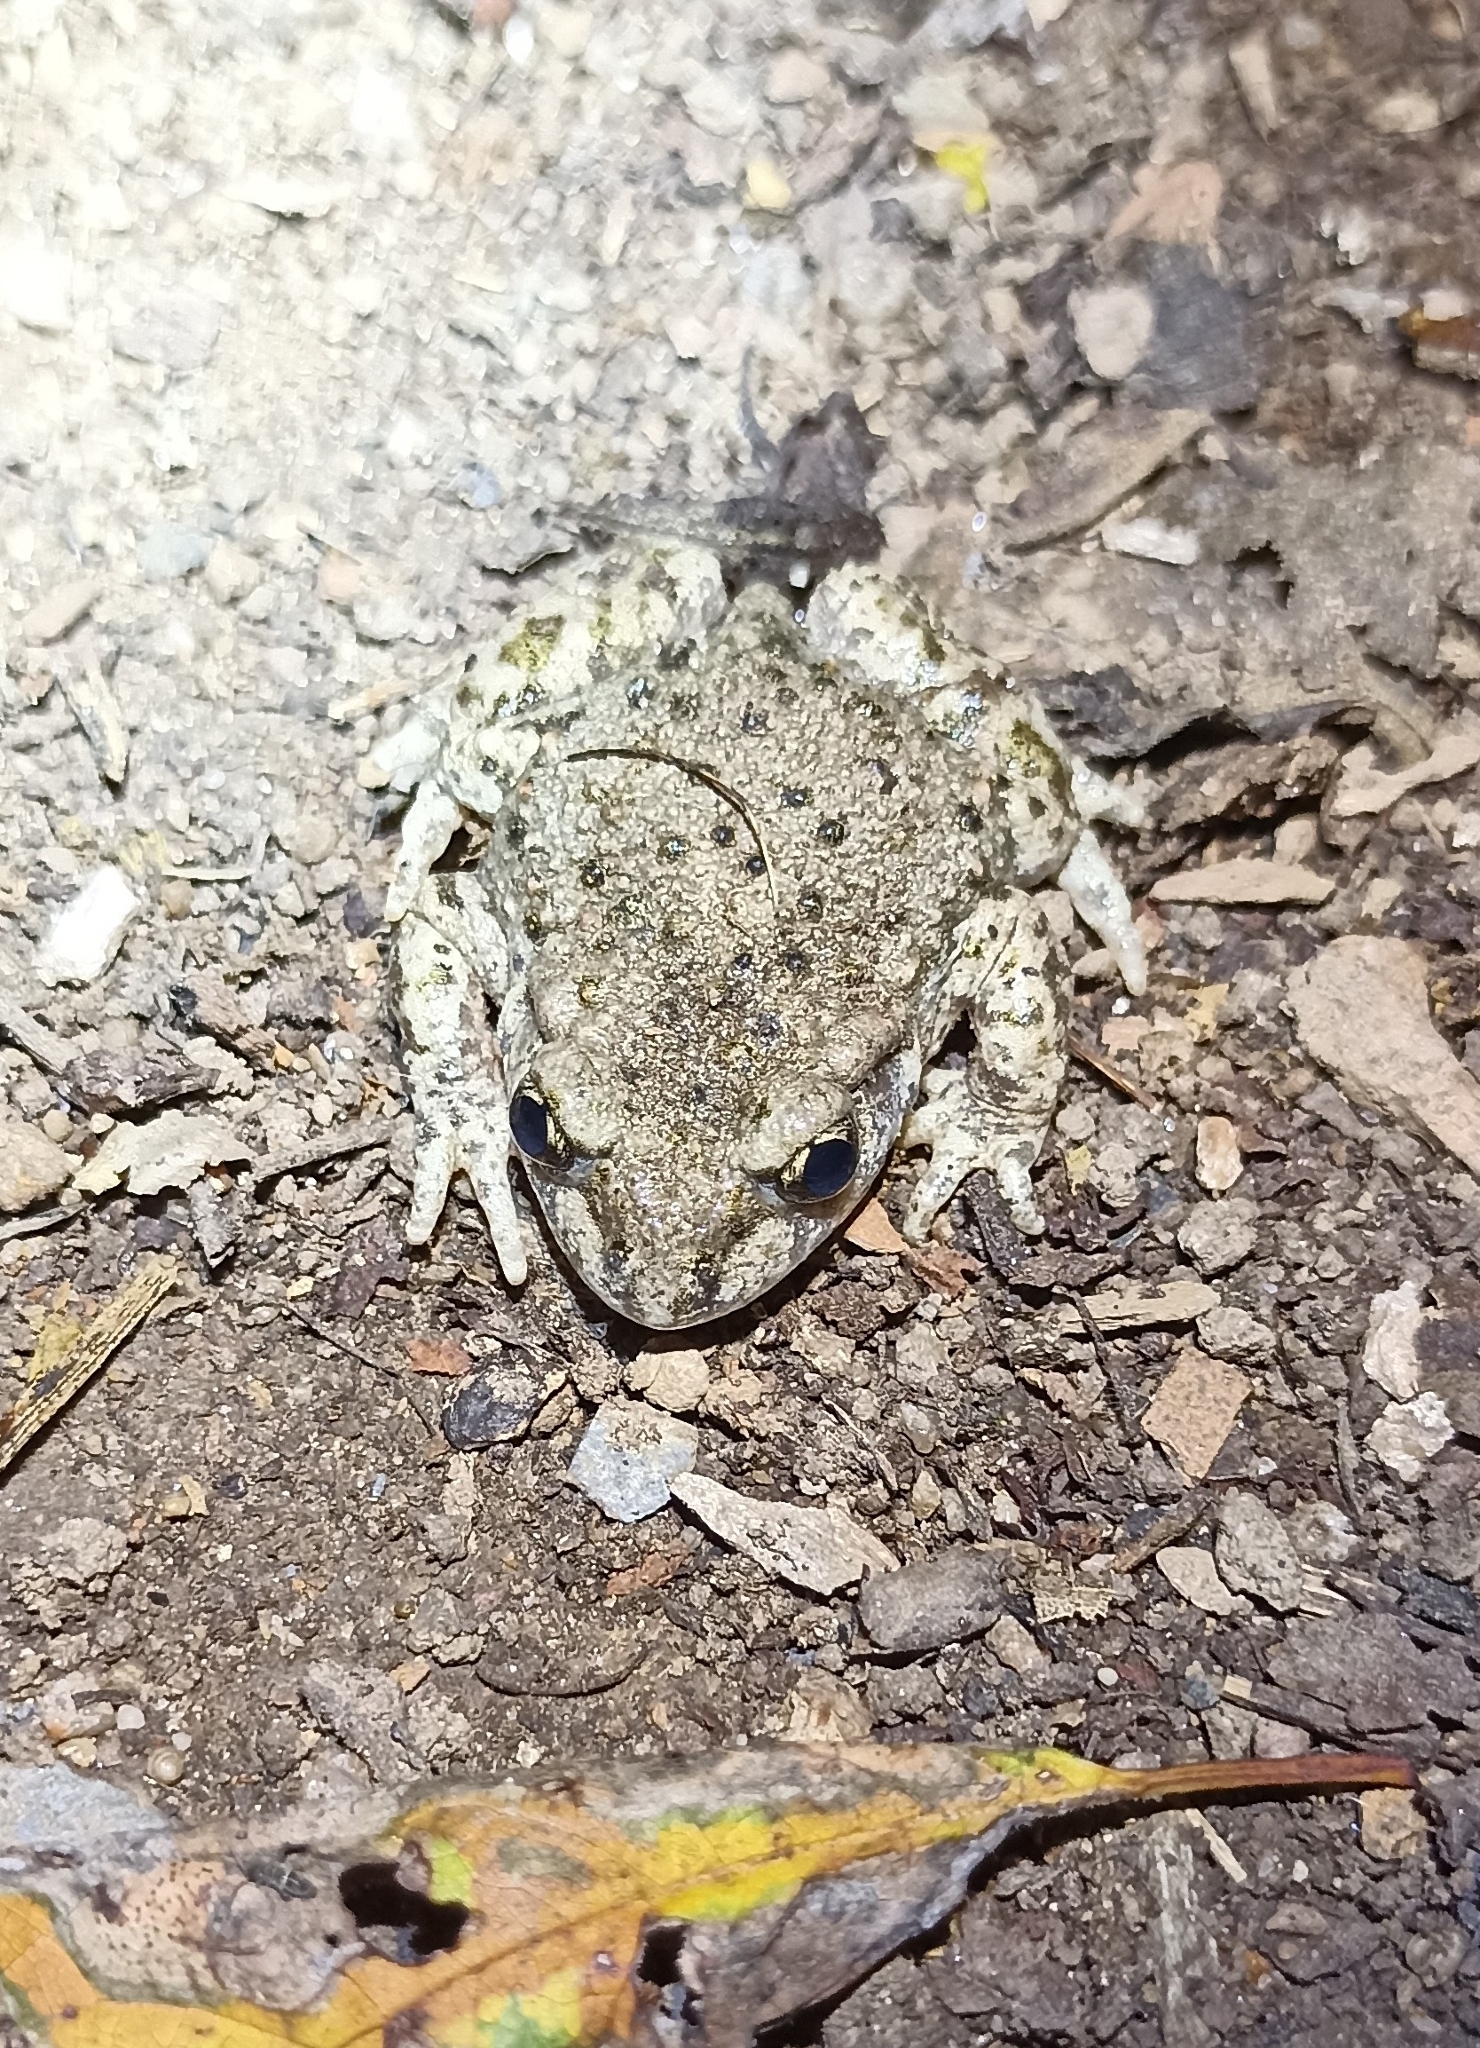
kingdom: Animalia
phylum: Chordata
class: Amphibia
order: Anura
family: Alytidae
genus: Alytes
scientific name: Alytes obstetricans
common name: Midwife toad
